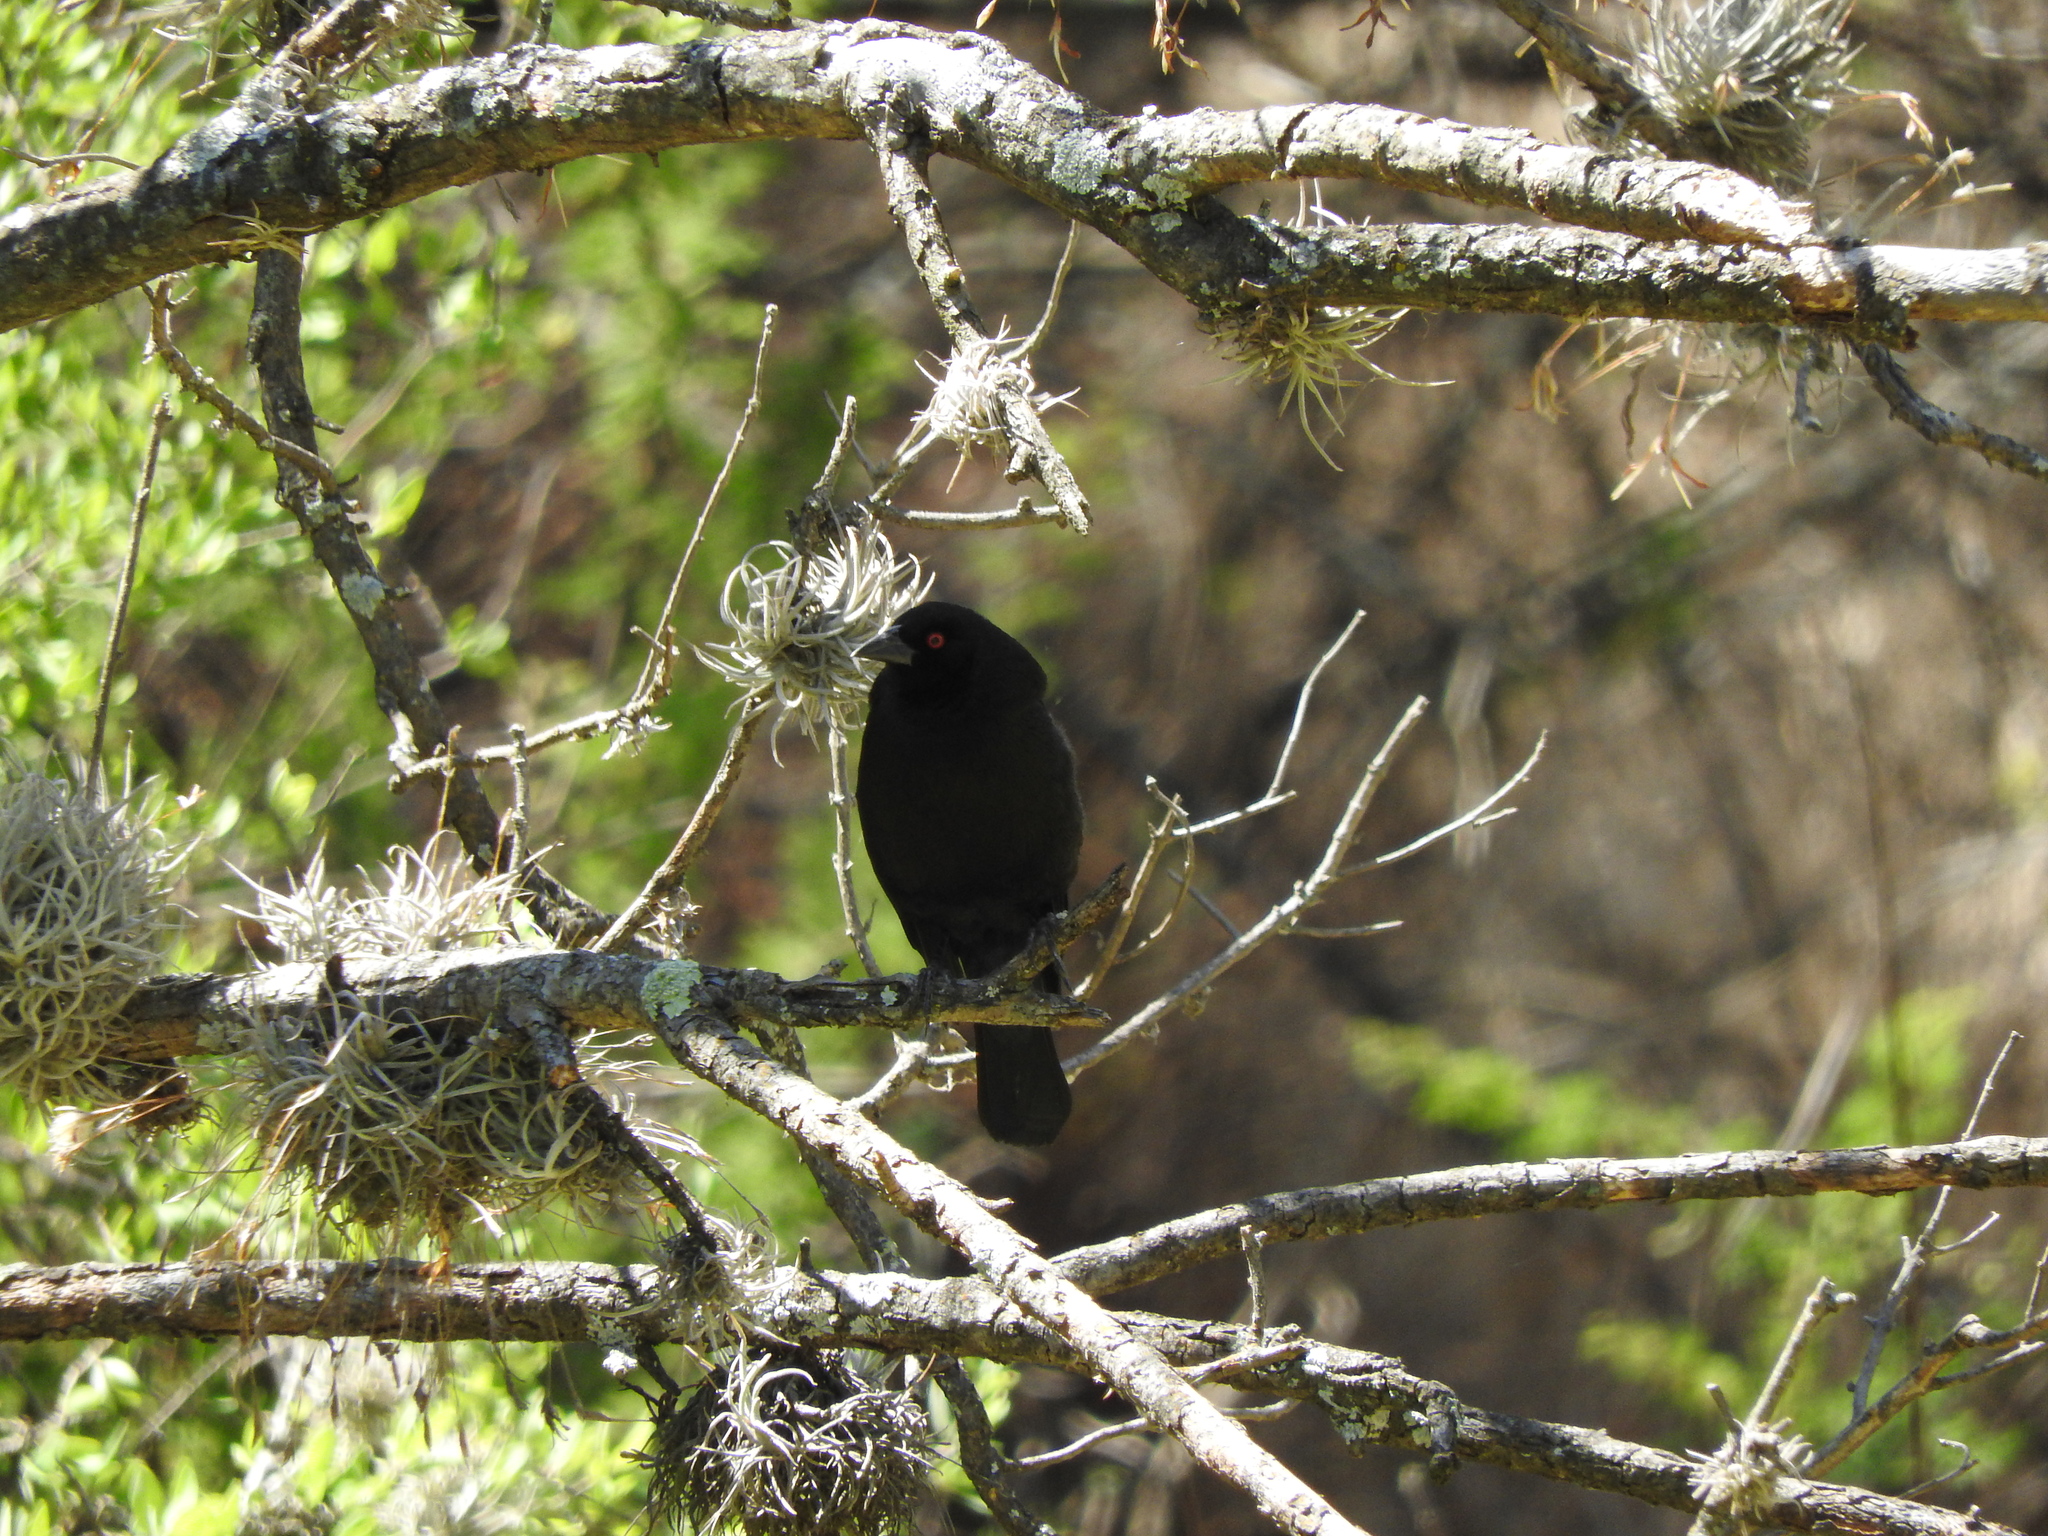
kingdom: Animalia
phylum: Chordata
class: Aves
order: Passeriformes
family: Icteridae
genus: Molothrus
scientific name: Molothrus aeneus
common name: Bronzed cowbird
